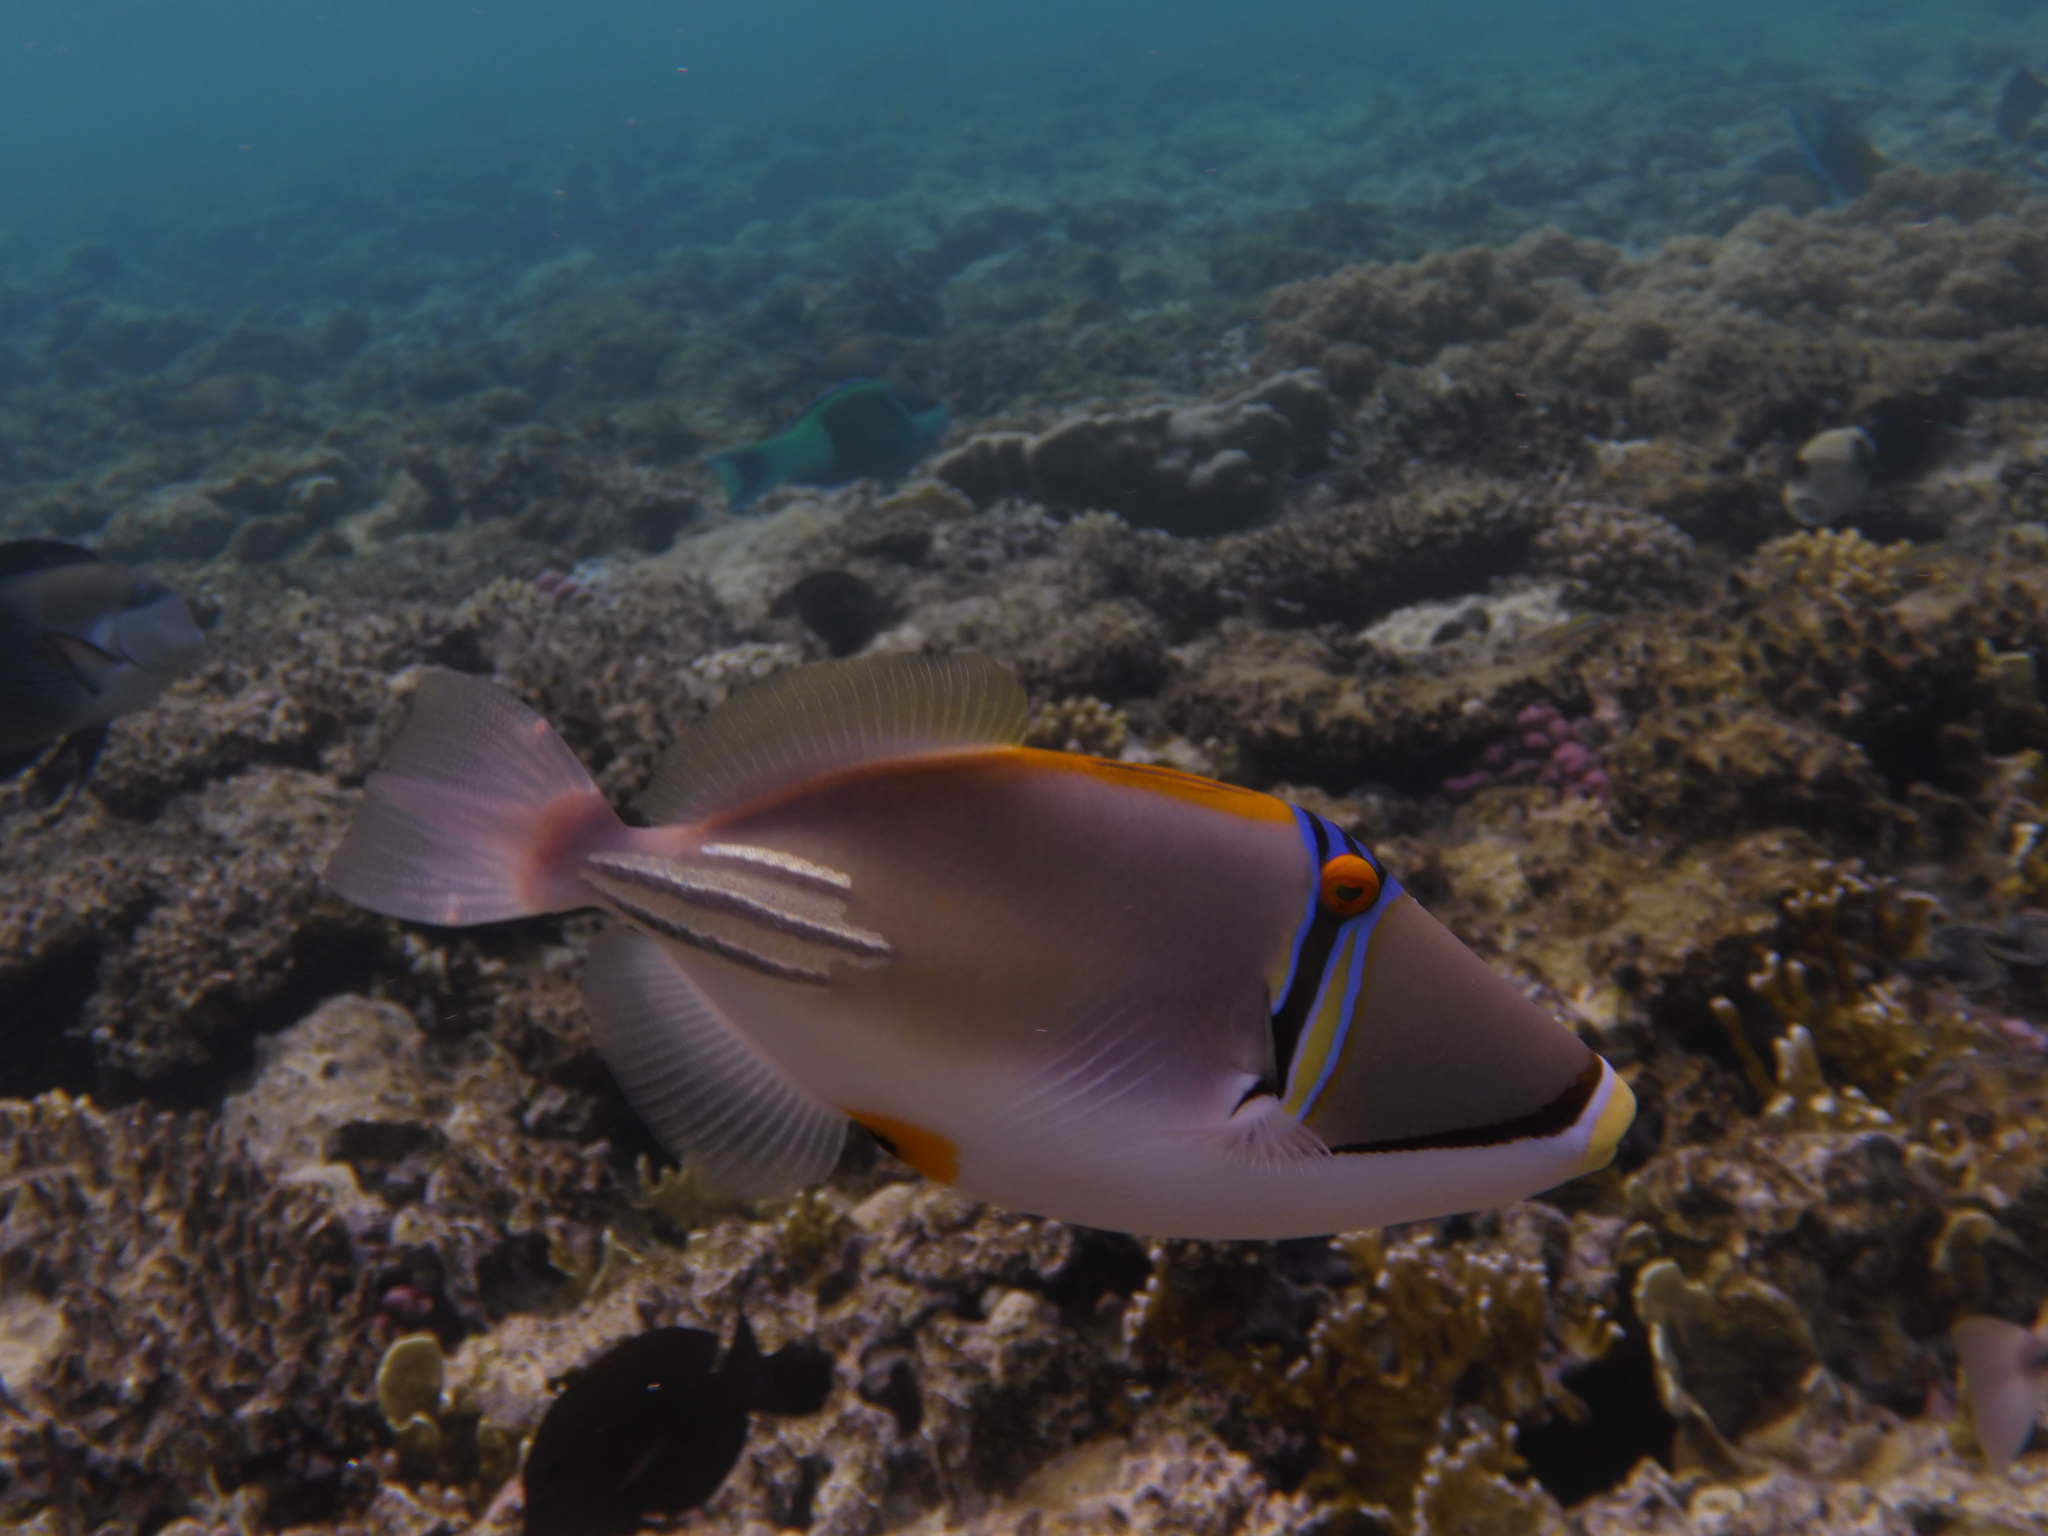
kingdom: Animalia
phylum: Chordata
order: Tetraodontiformes
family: Balistidae
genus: Rhinecanthus
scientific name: Rhinecanthus assasi
